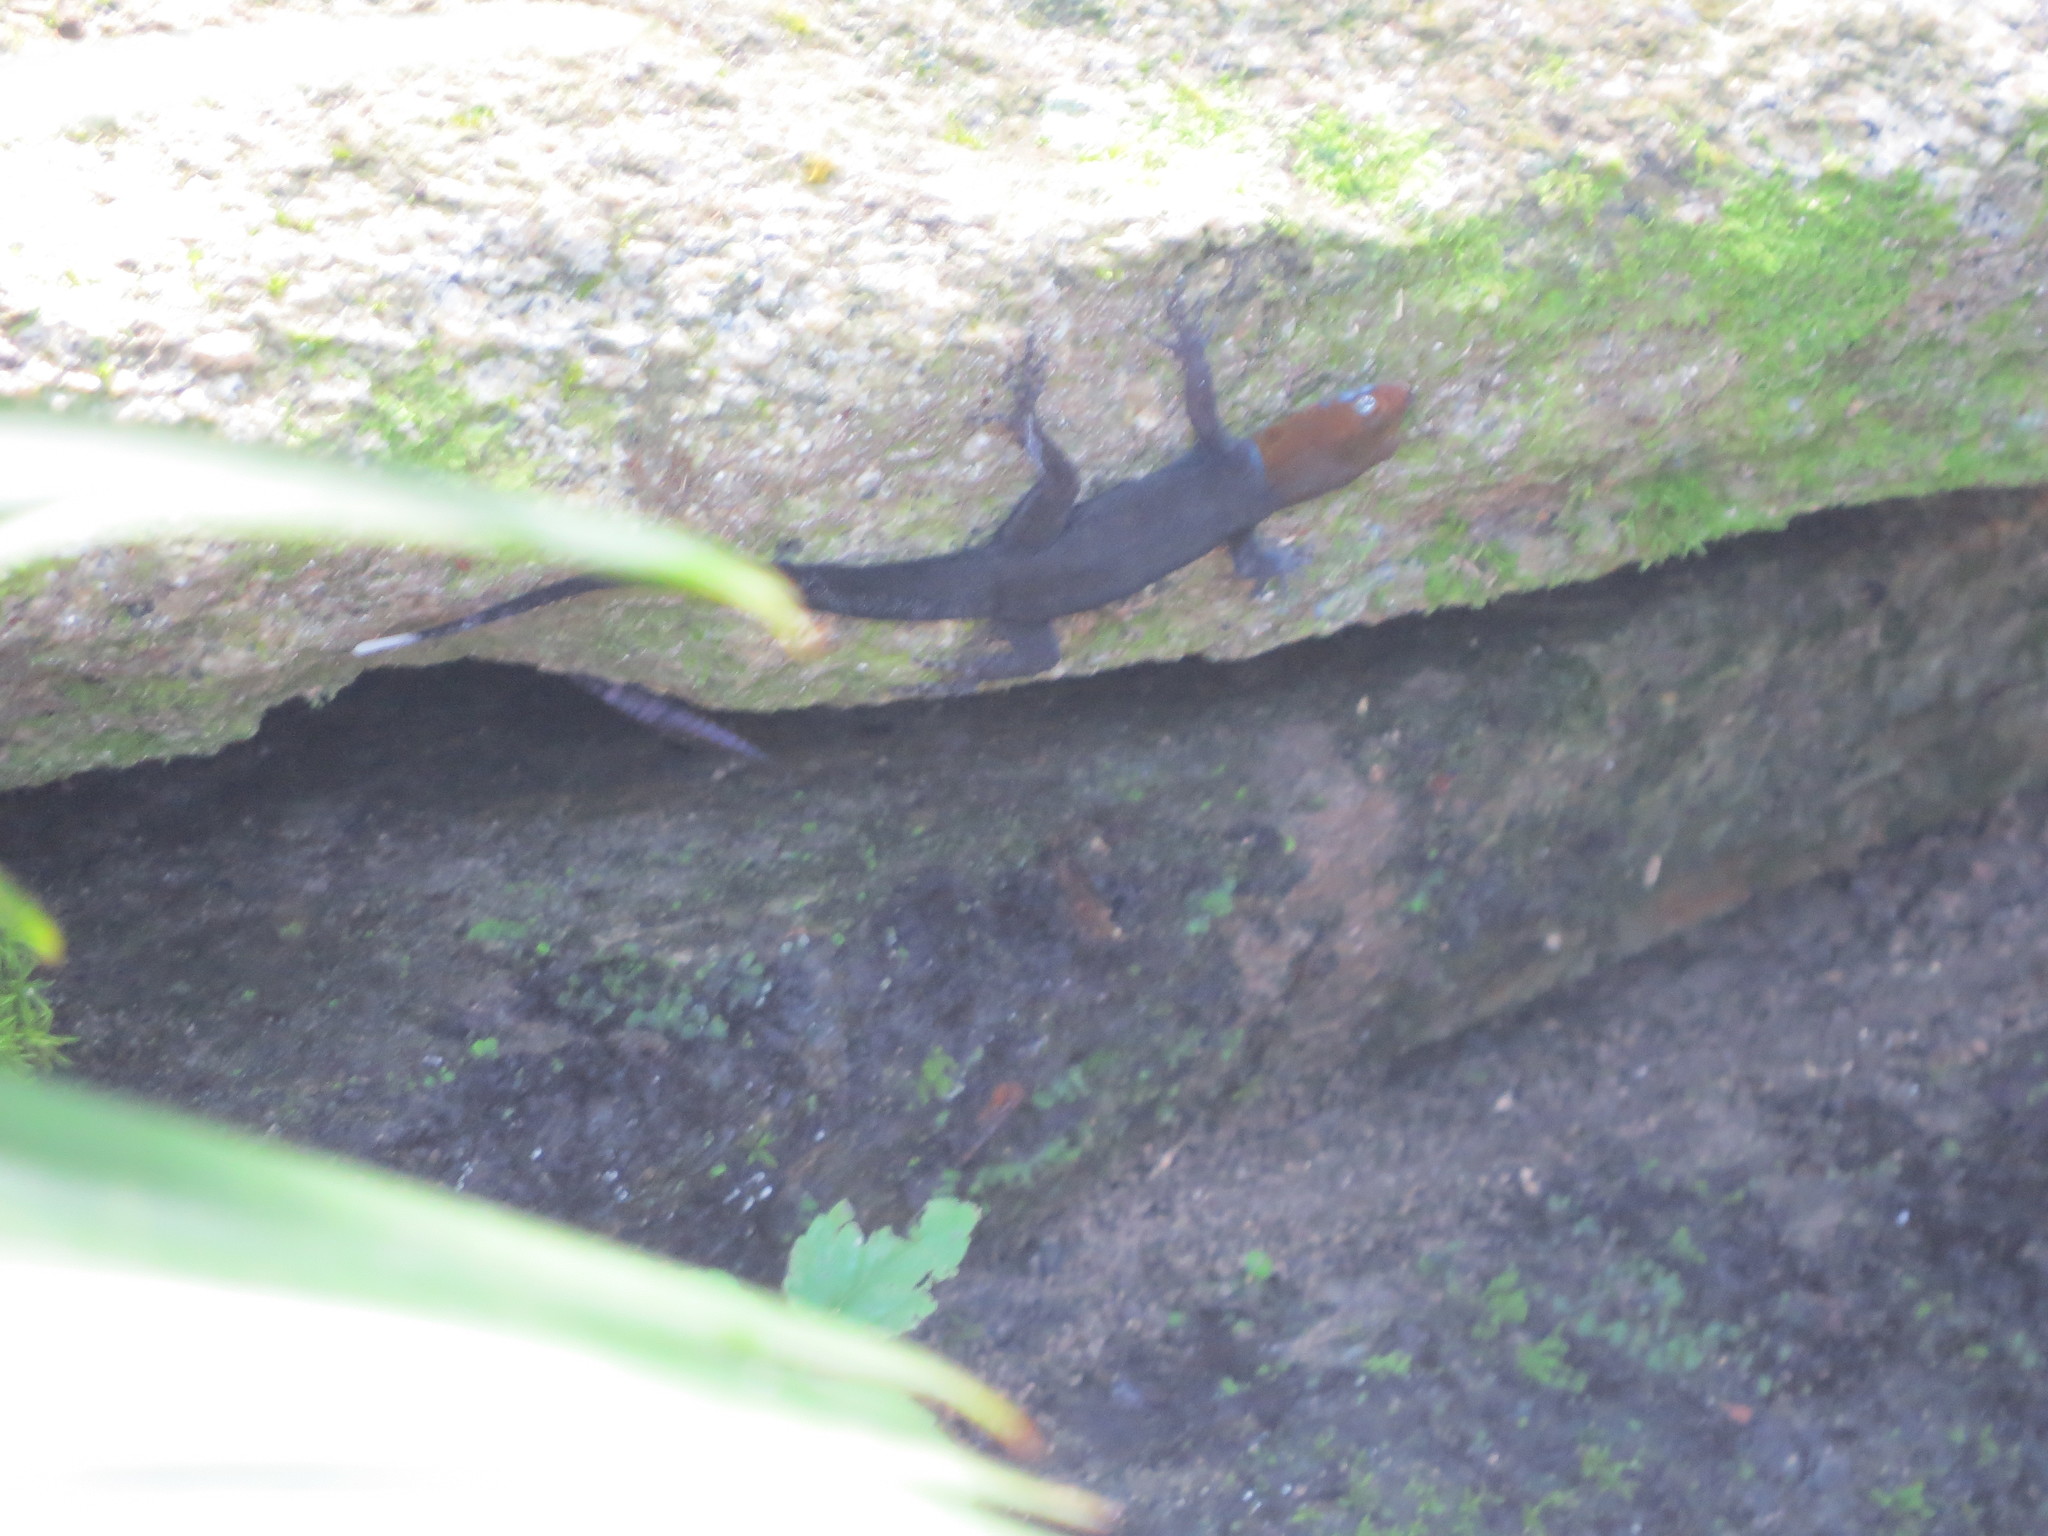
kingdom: Animalia
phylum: Chordata
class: Squamata
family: Sphaerodactylidae
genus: Gonatodes
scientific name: Gonatodes albogularis
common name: Yellow-headed gecko
